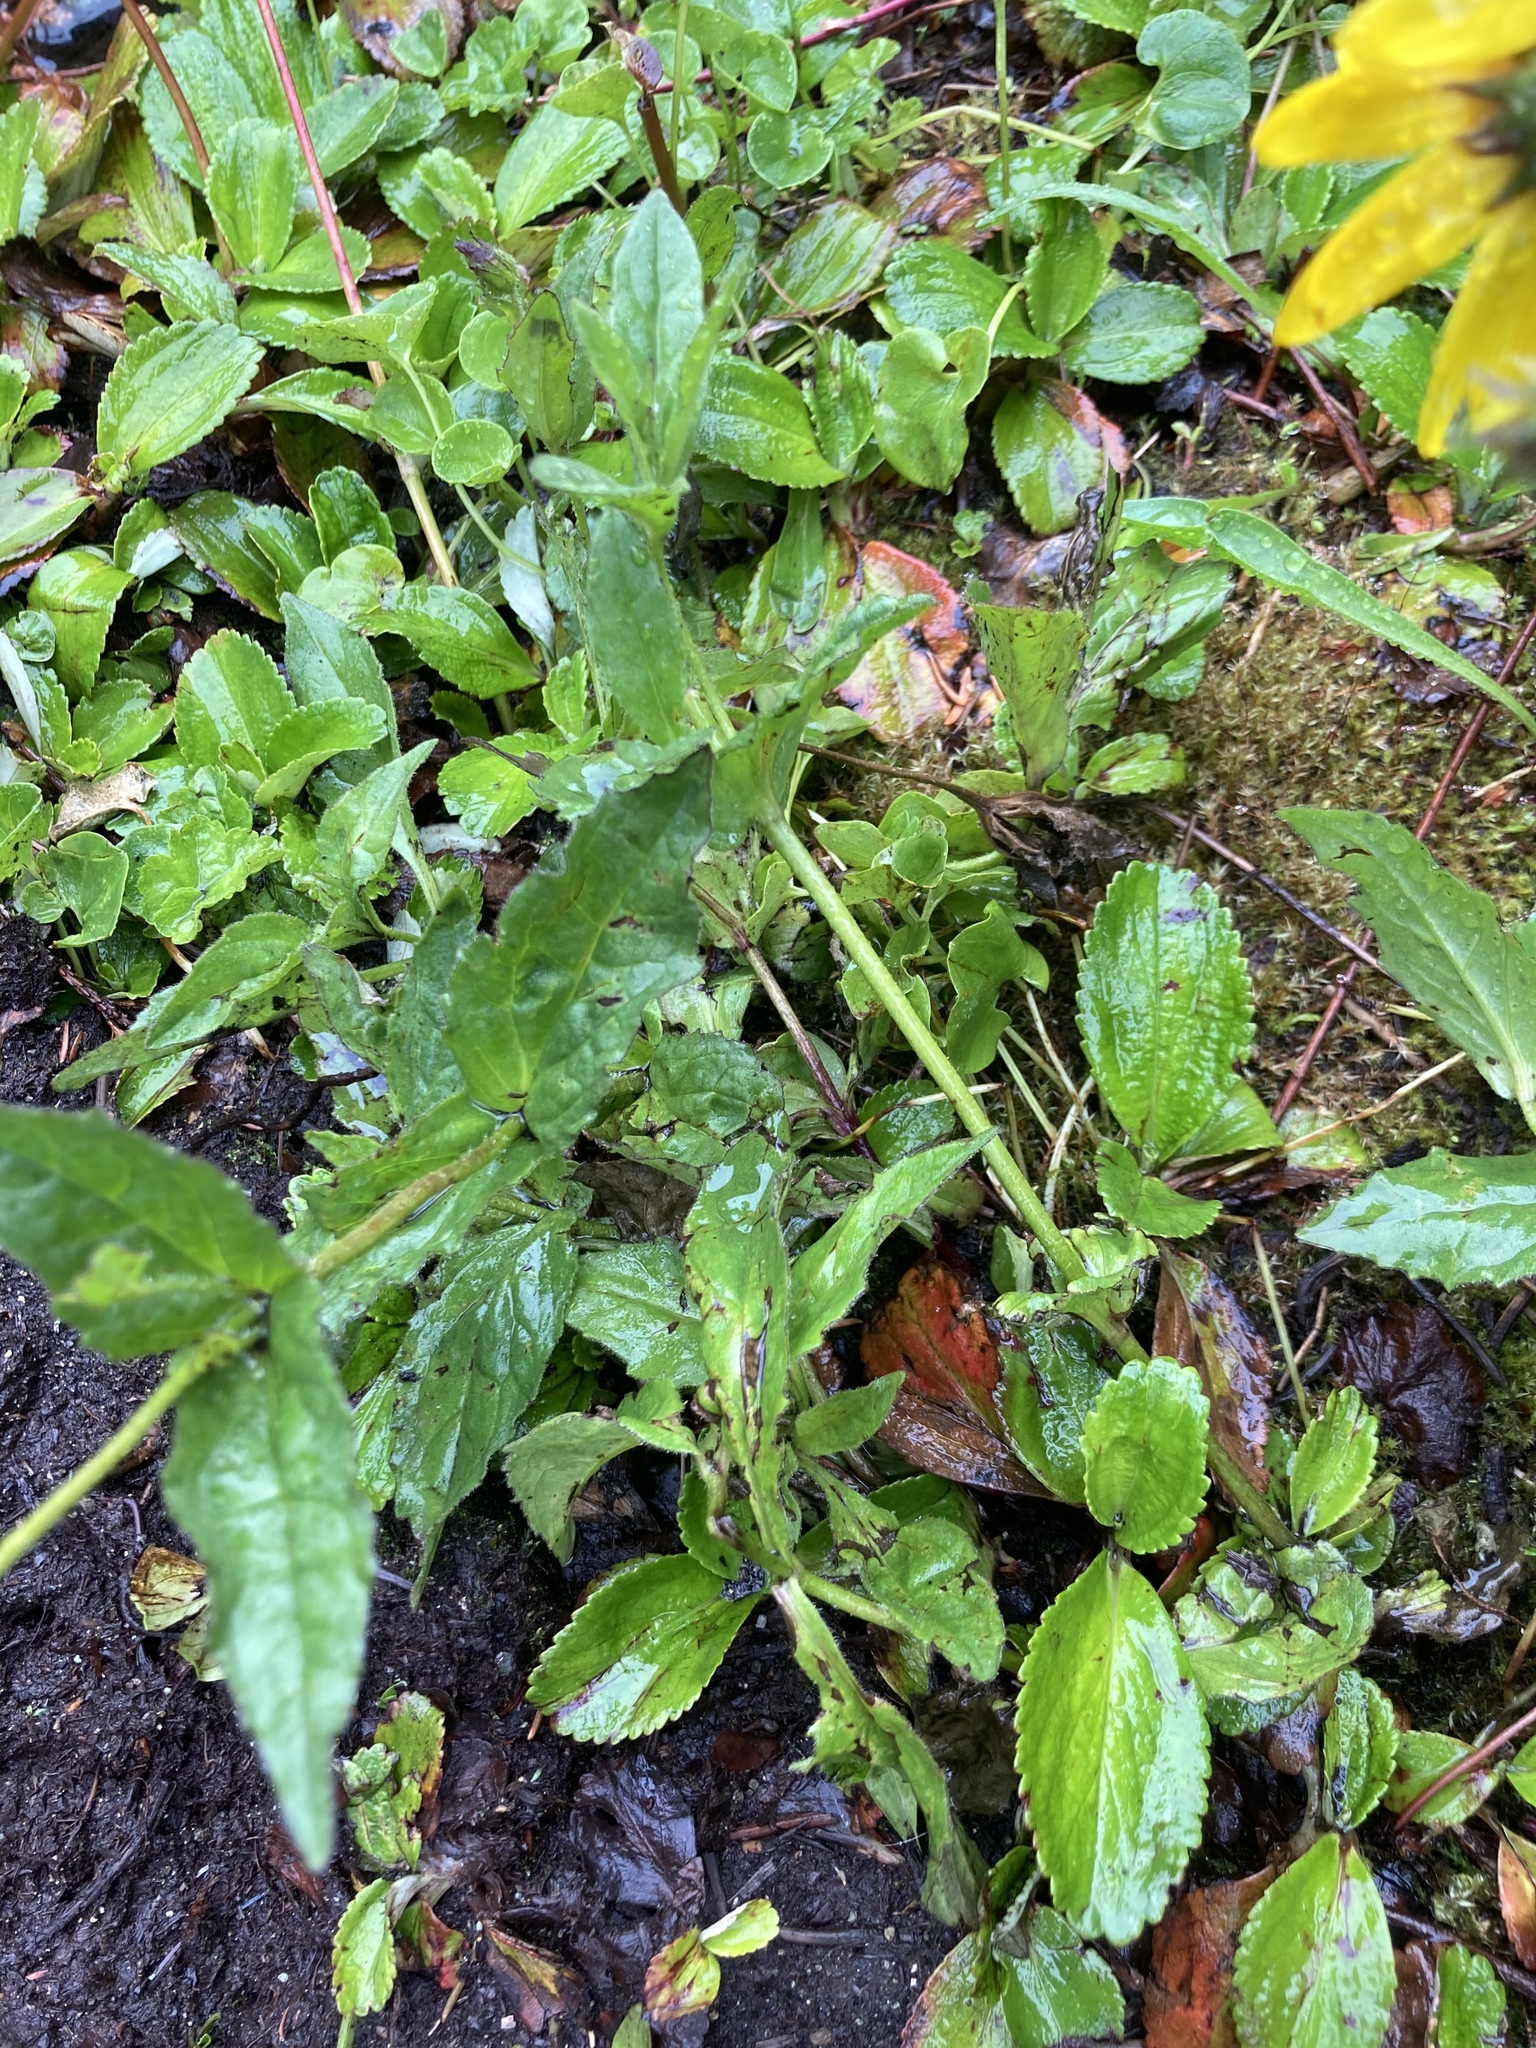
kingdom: Plantae
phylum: Tracheophyta
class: Magnoliopsida
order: Asterales
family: Asteraceae
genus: Arnica
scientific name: Arnica latifolia
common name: Arnica
